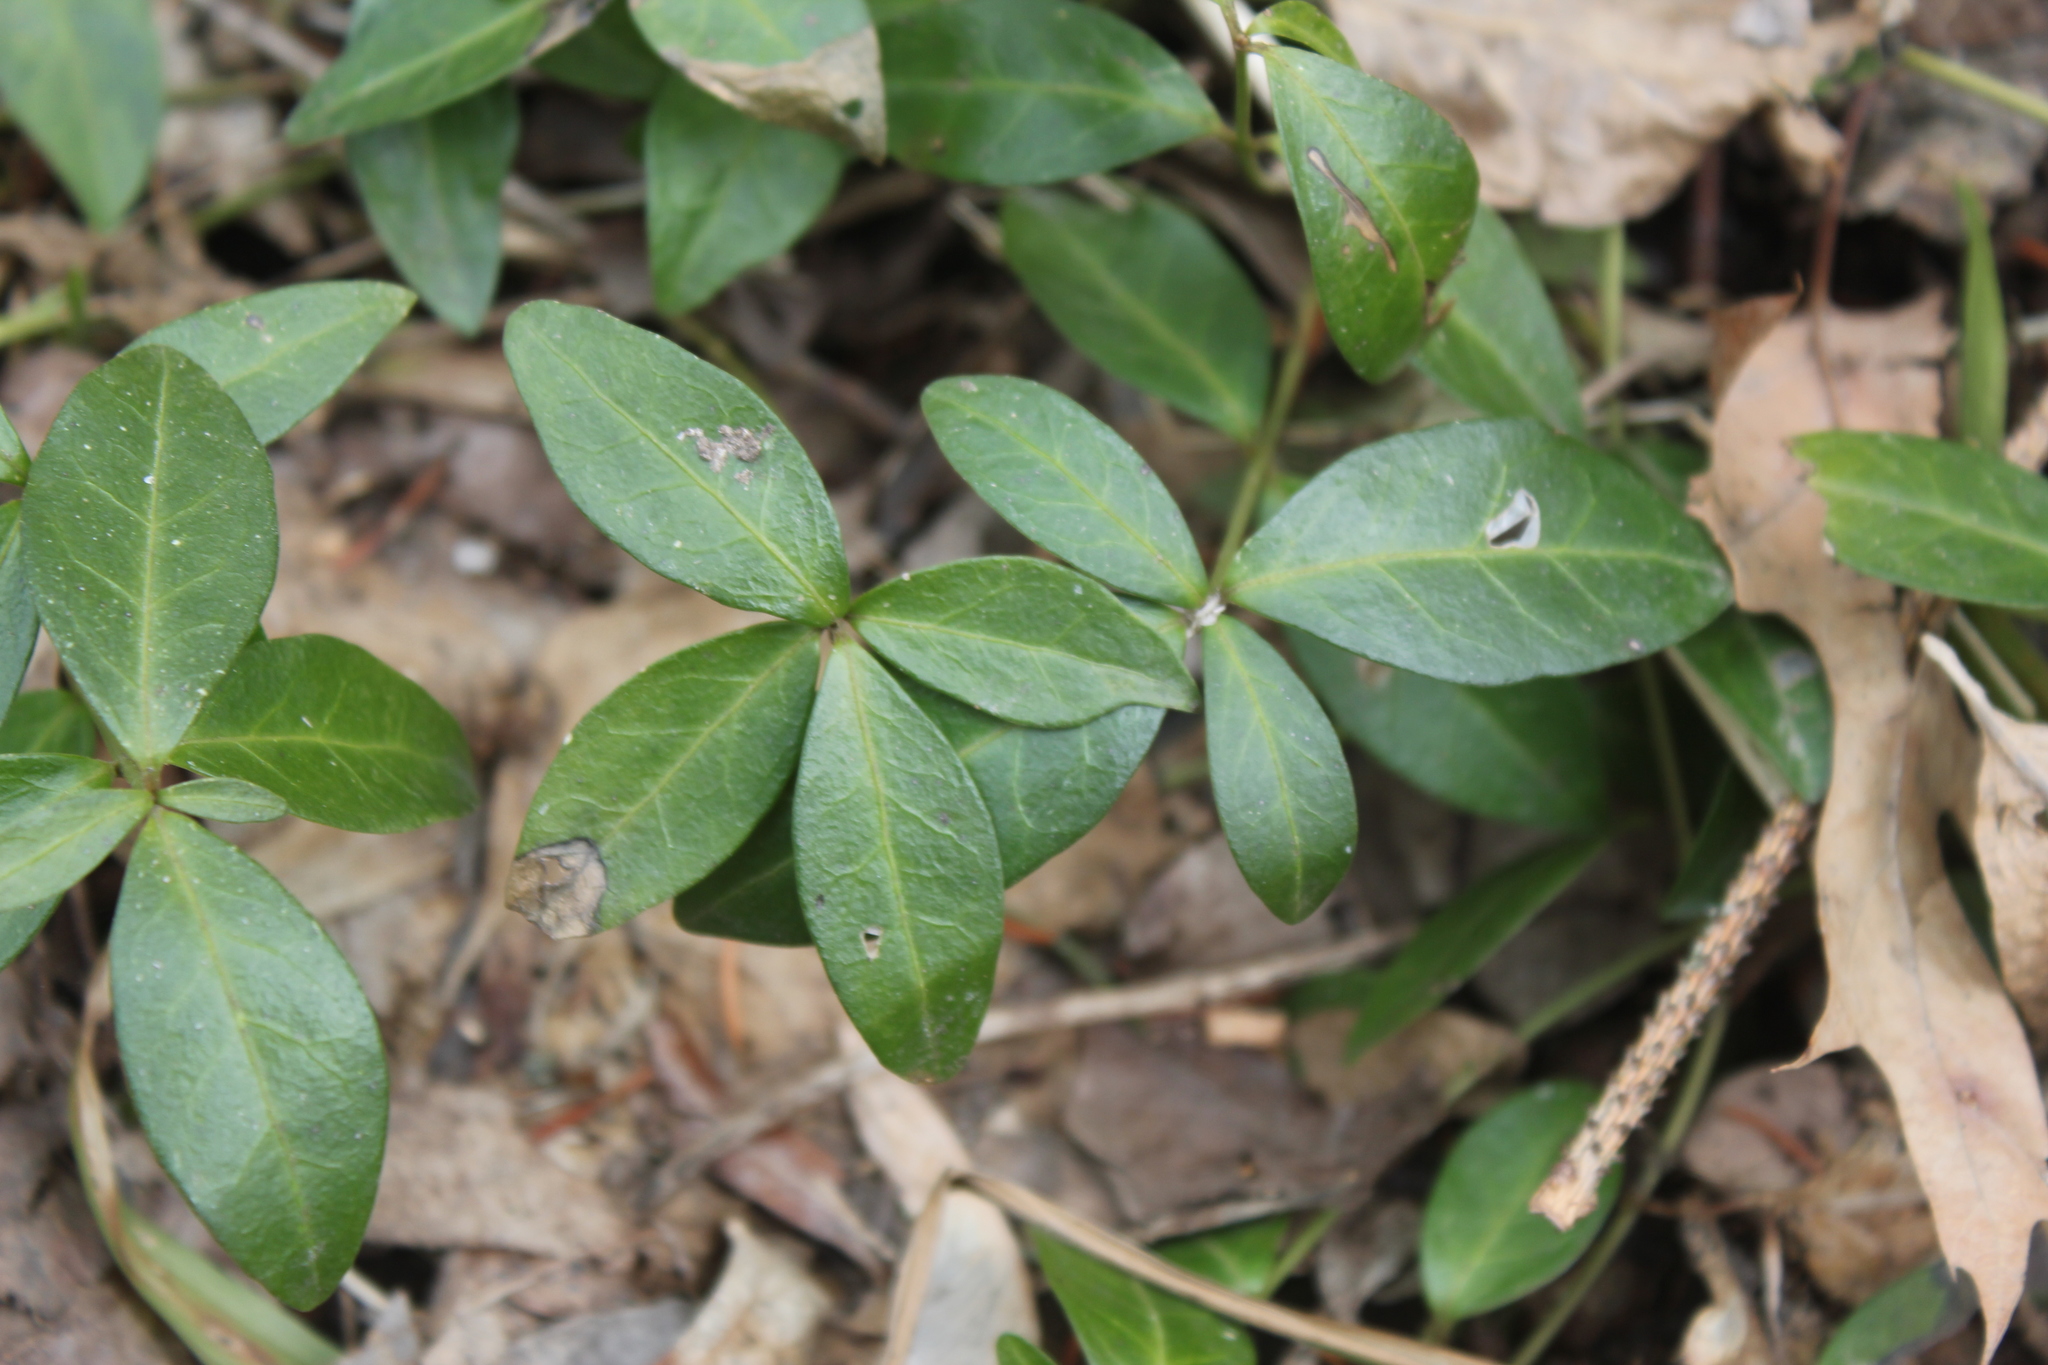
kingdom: Plantae
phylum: Tracheophyta
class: Magnoliopsida
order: Gentianales
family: Apocynaceae
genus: Vinca
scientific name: Vinca minor
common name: Lesser periwinkle
